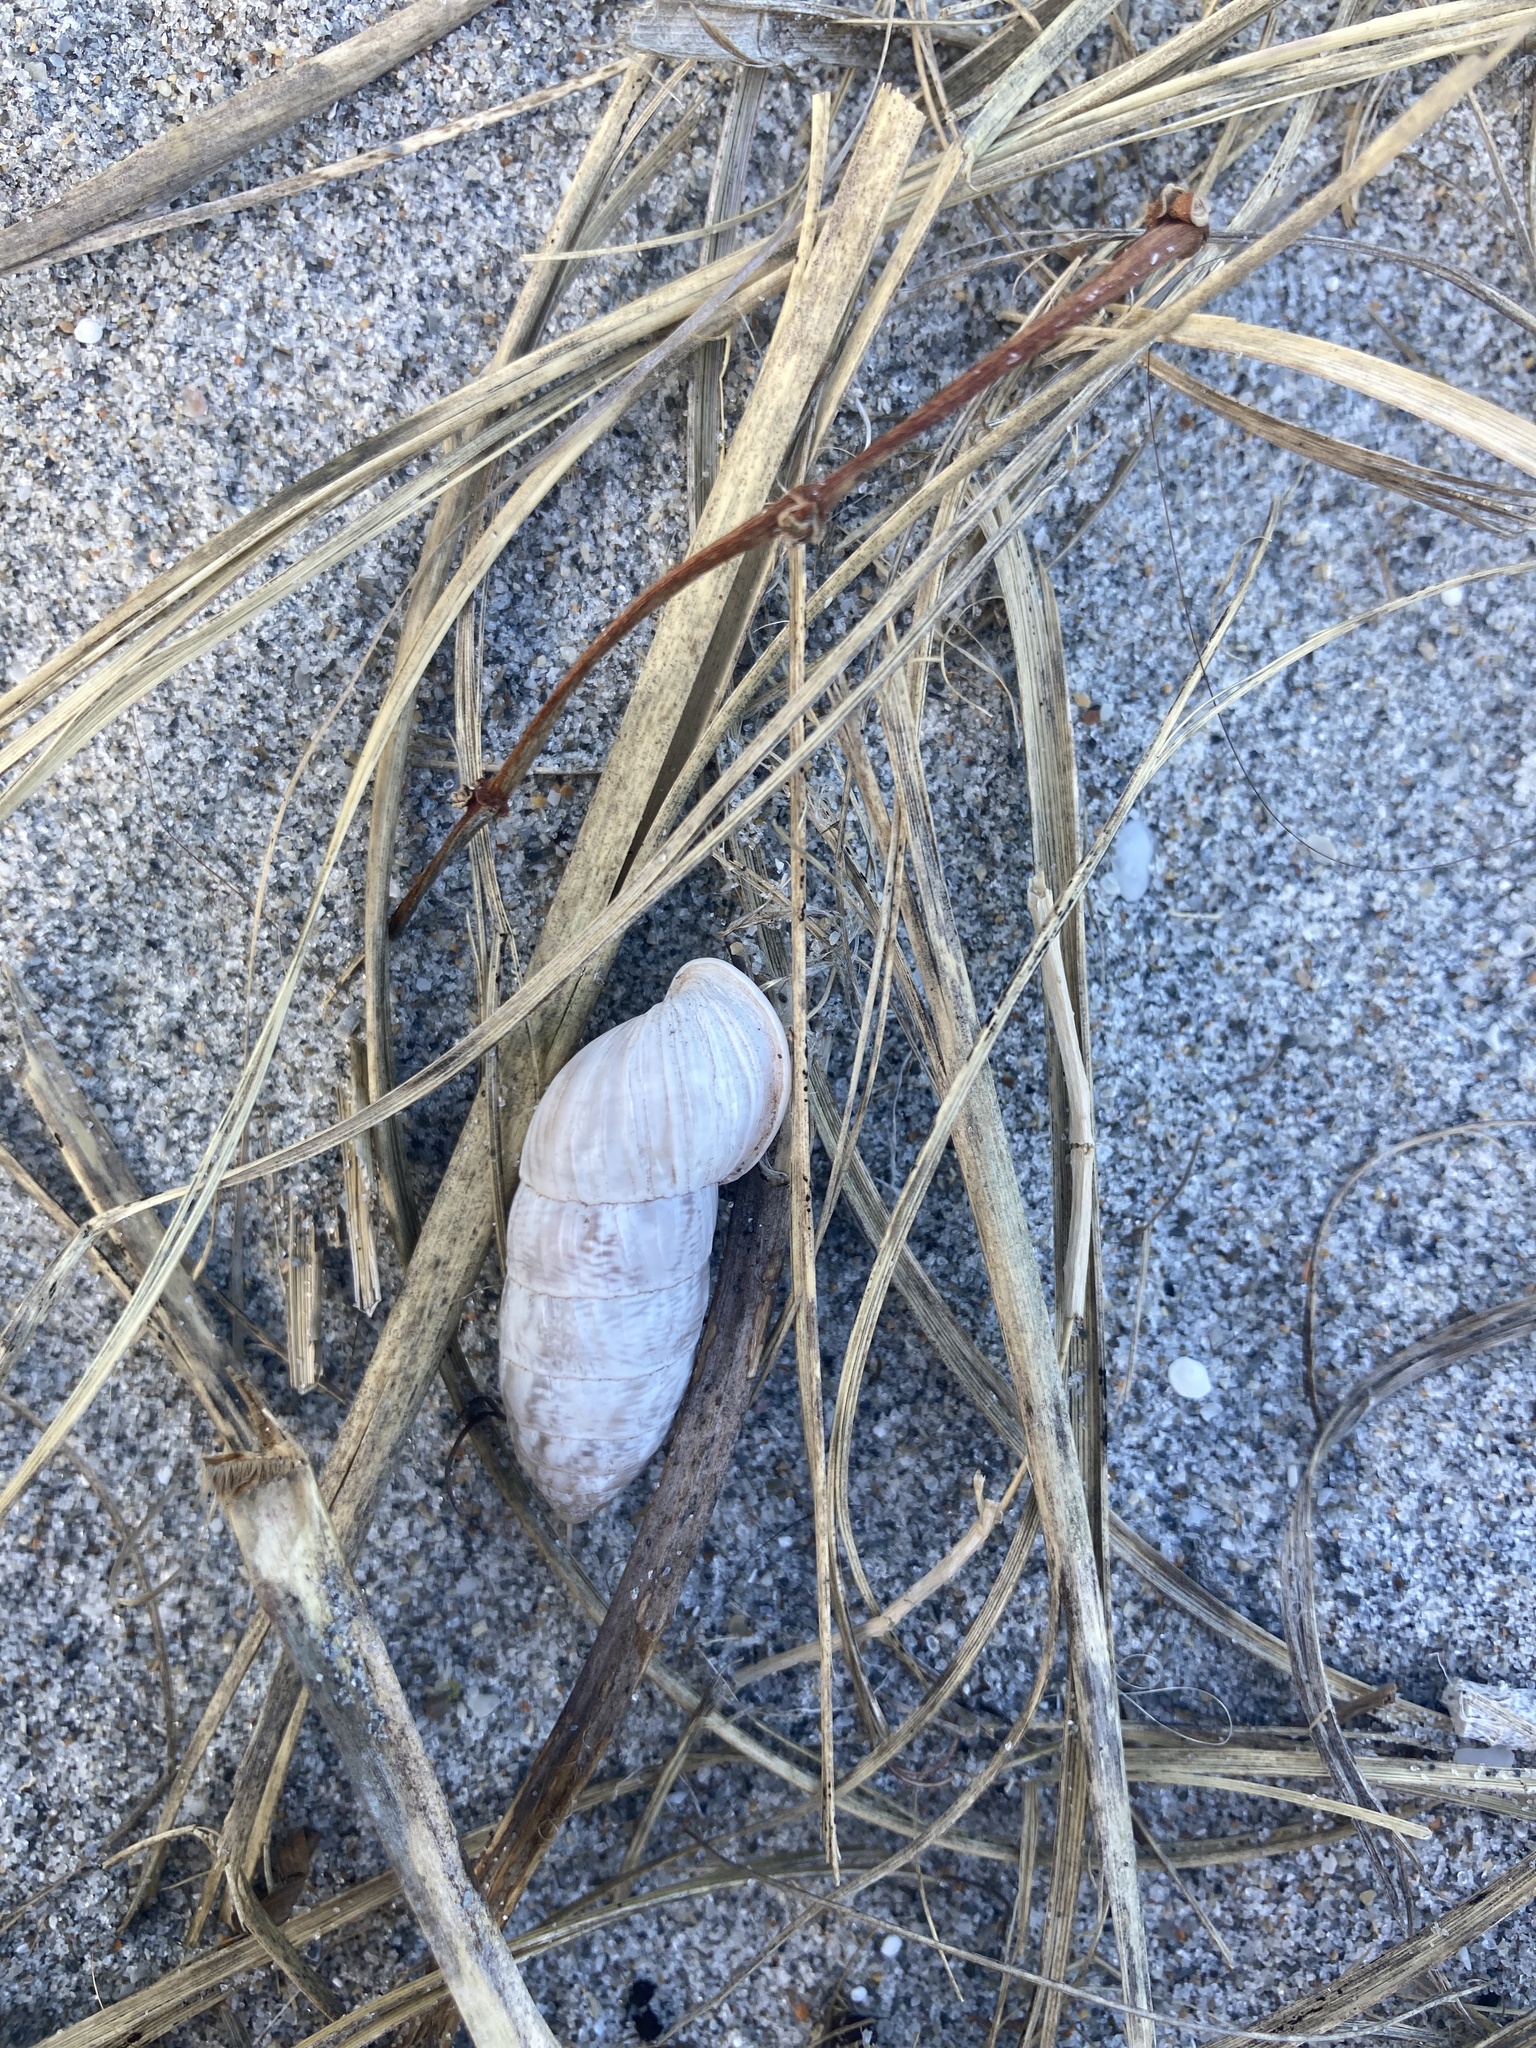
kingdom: Animalia
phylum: Mollusca
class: Gastropoda
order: Stylommatophora
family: Cerionidae
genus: Cerion
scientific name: Cerion
